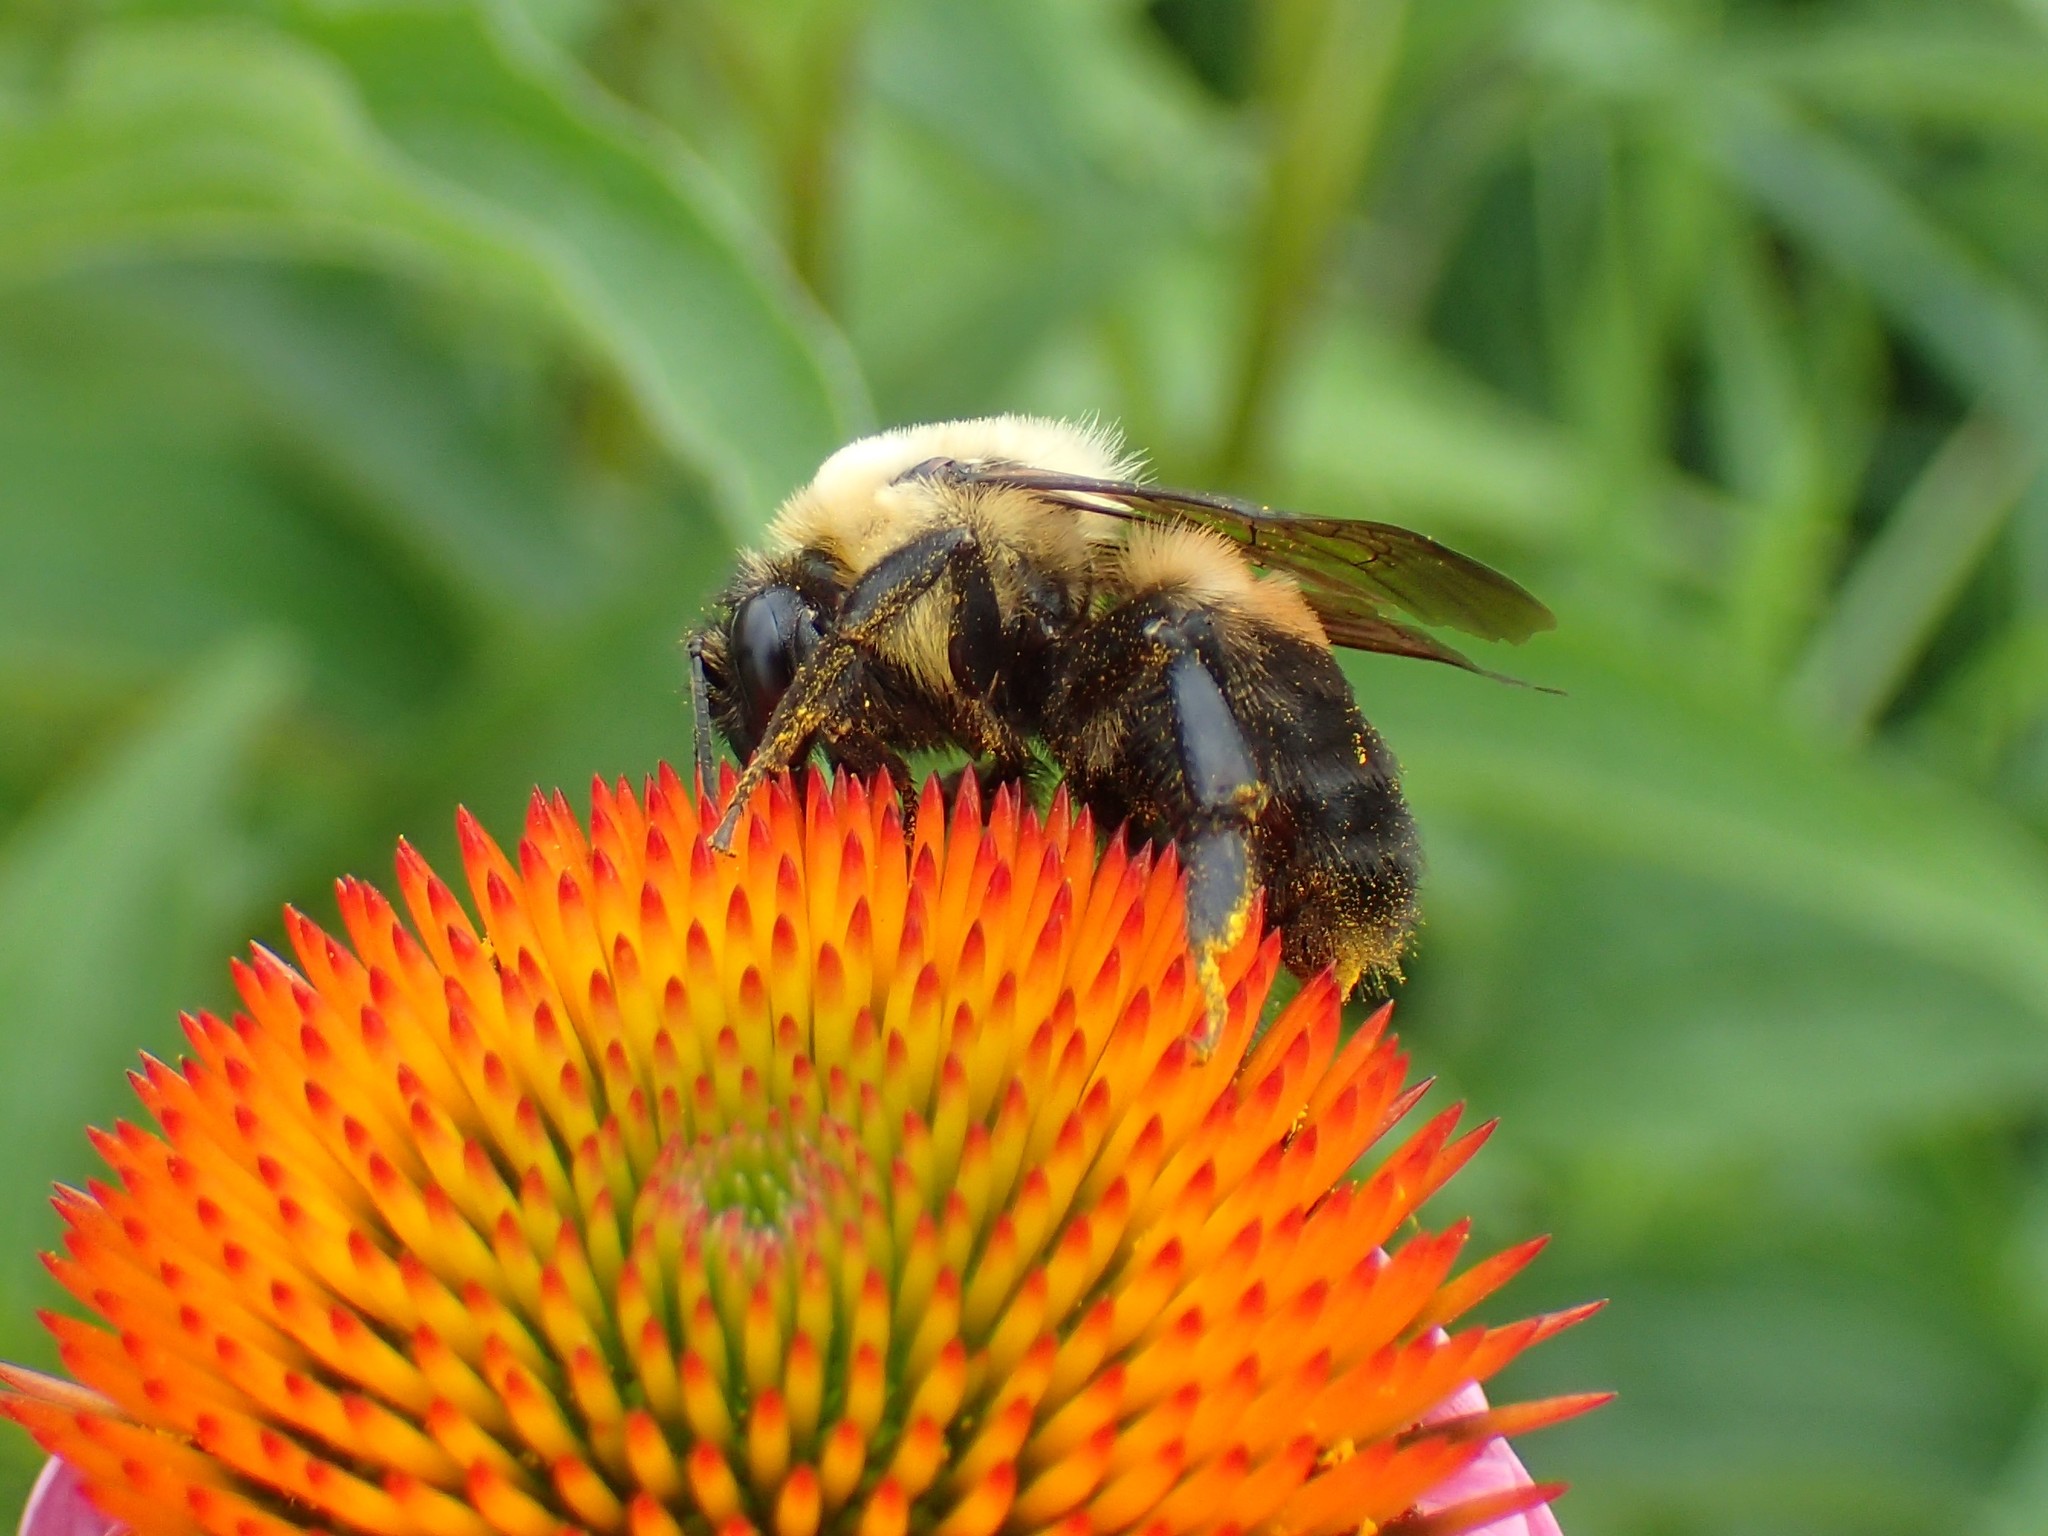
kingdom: Animalia
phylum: Arthropoda
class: Insecta
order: Hymenoptera
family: Apidae
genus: Bombus
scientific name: Bombus griseocollis
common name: Brown-belted bumble bee
